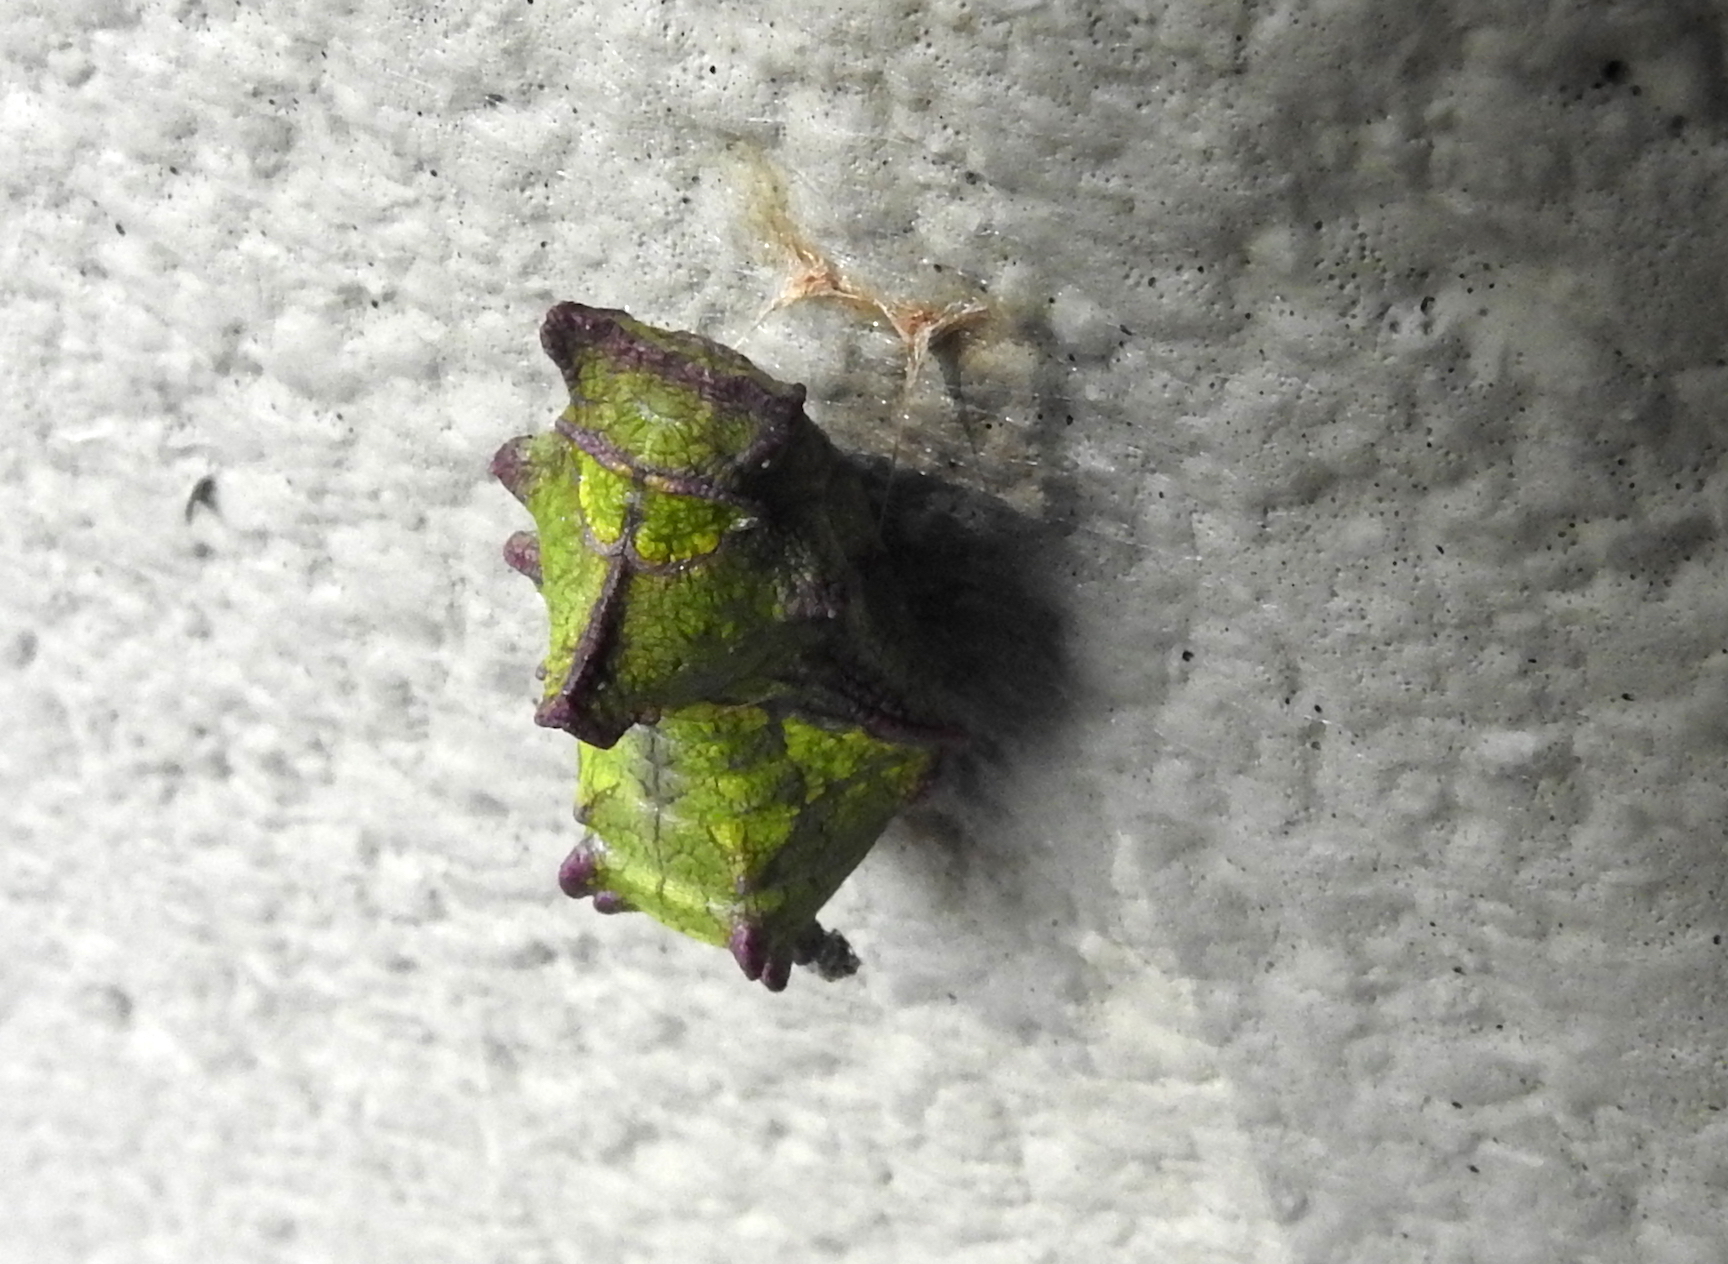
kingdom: Animalia
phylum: Arthropoda
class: Insecta
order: Lepidoptera
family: Papilionidae
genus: Battus
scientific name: Battus philenor
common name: Pipevine swallowtail
